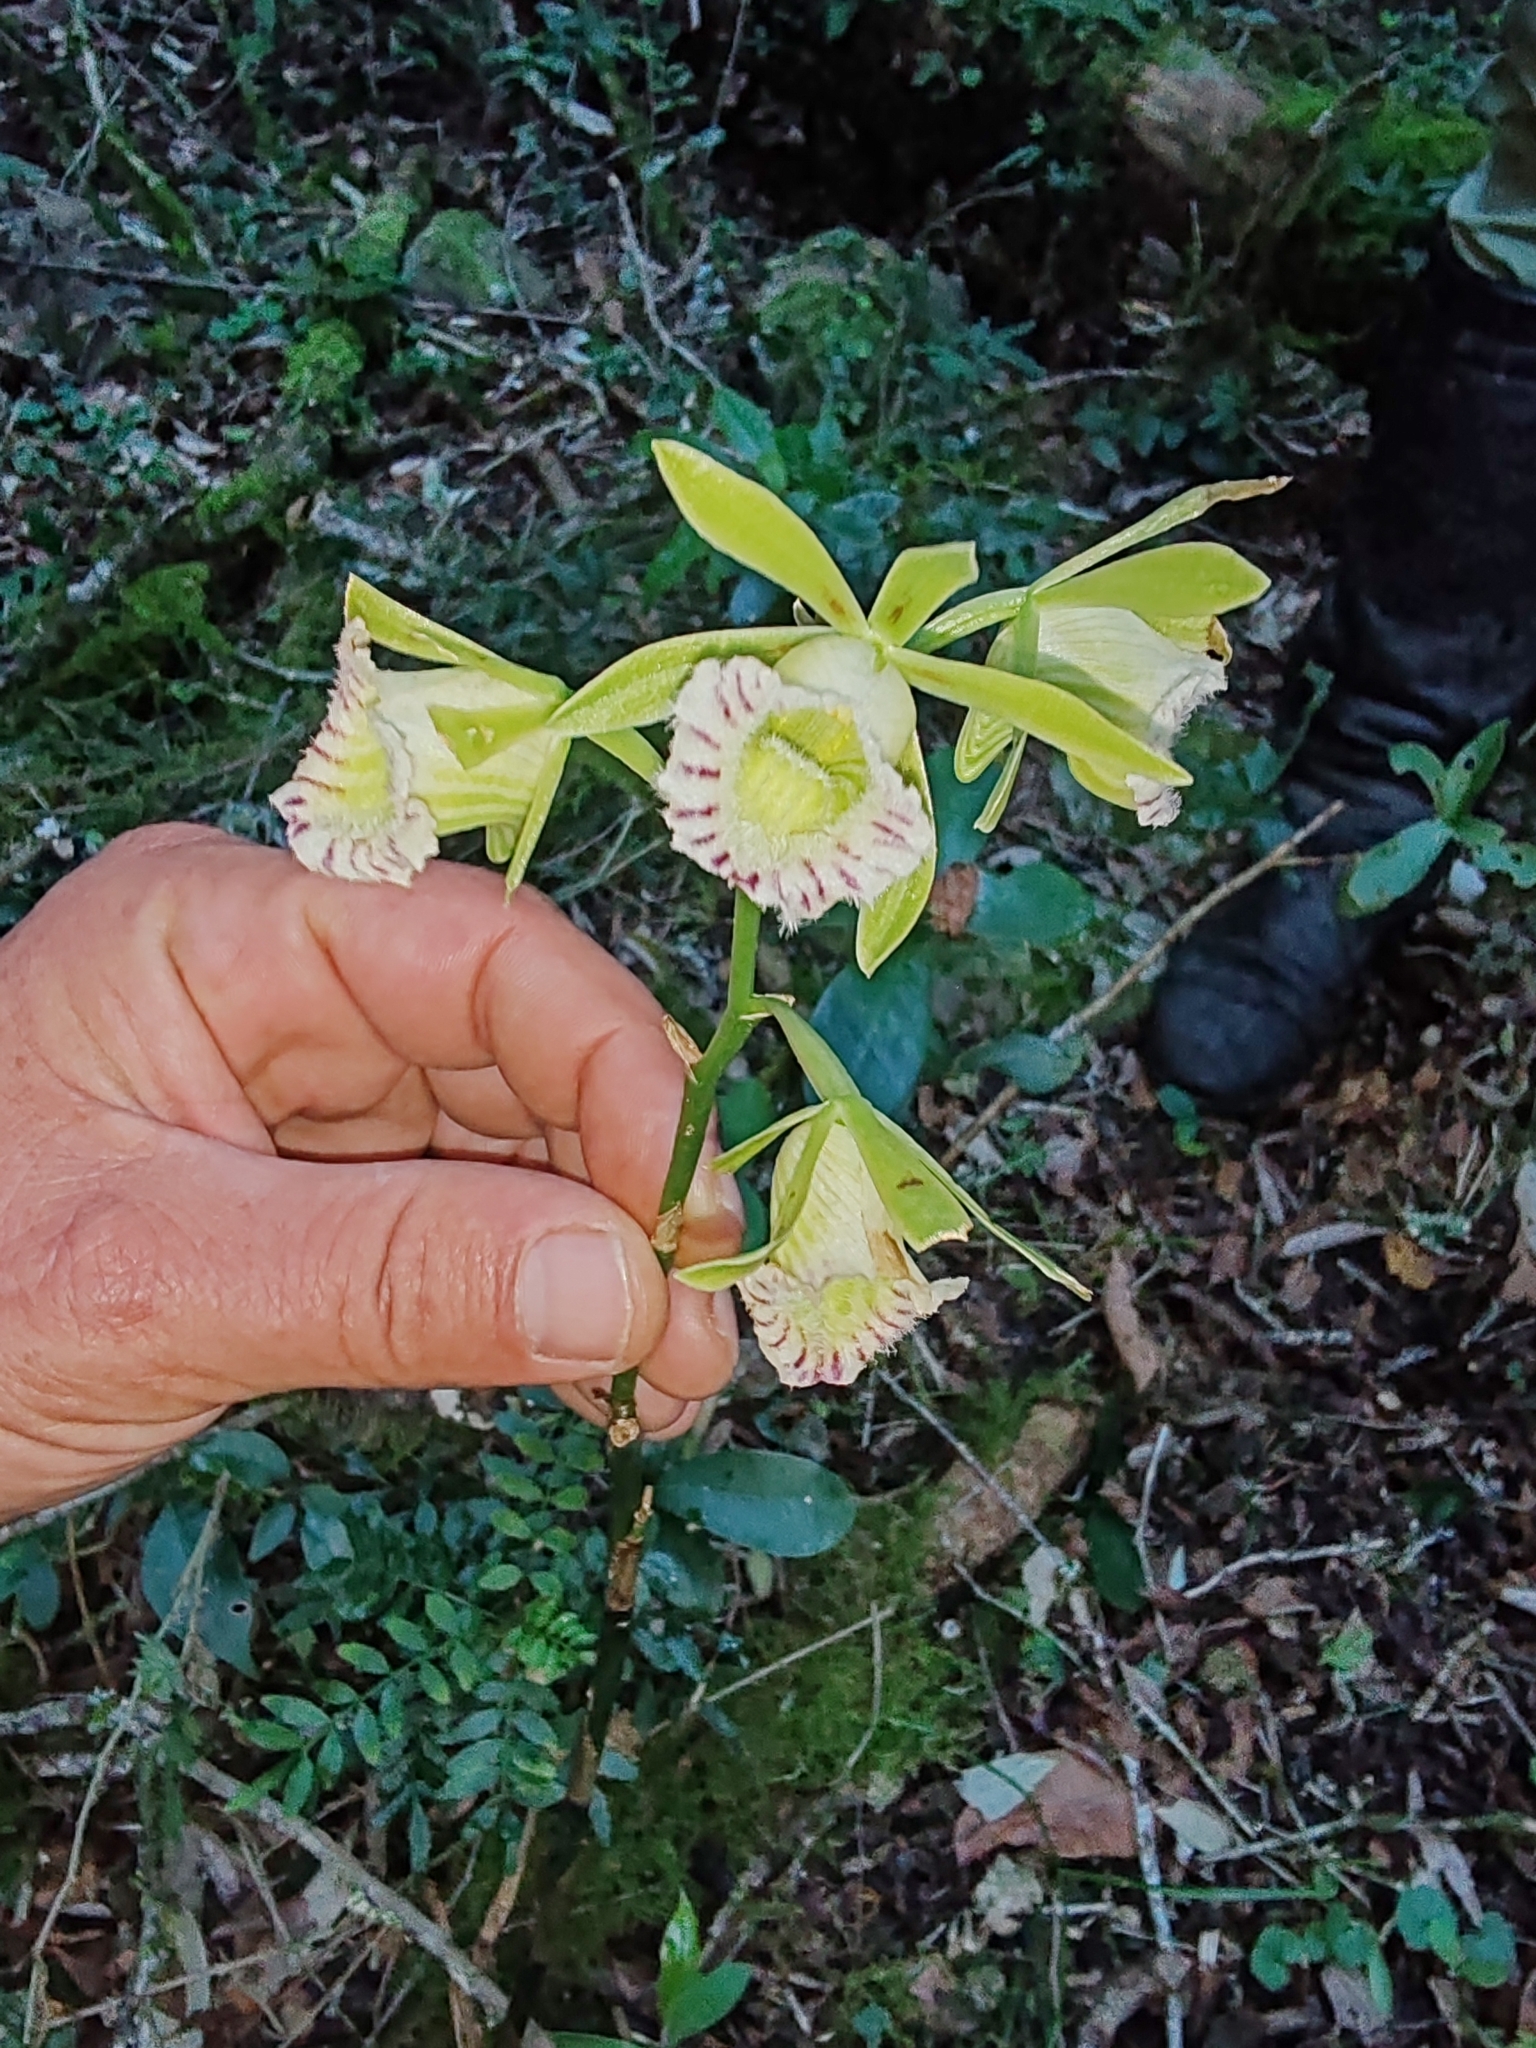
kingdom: Plantae
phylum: Tracheophyta
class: Liliopsida
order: Asparagales
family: Orchidaceae
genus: Galeandra
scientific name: Galeandra beyrichii
